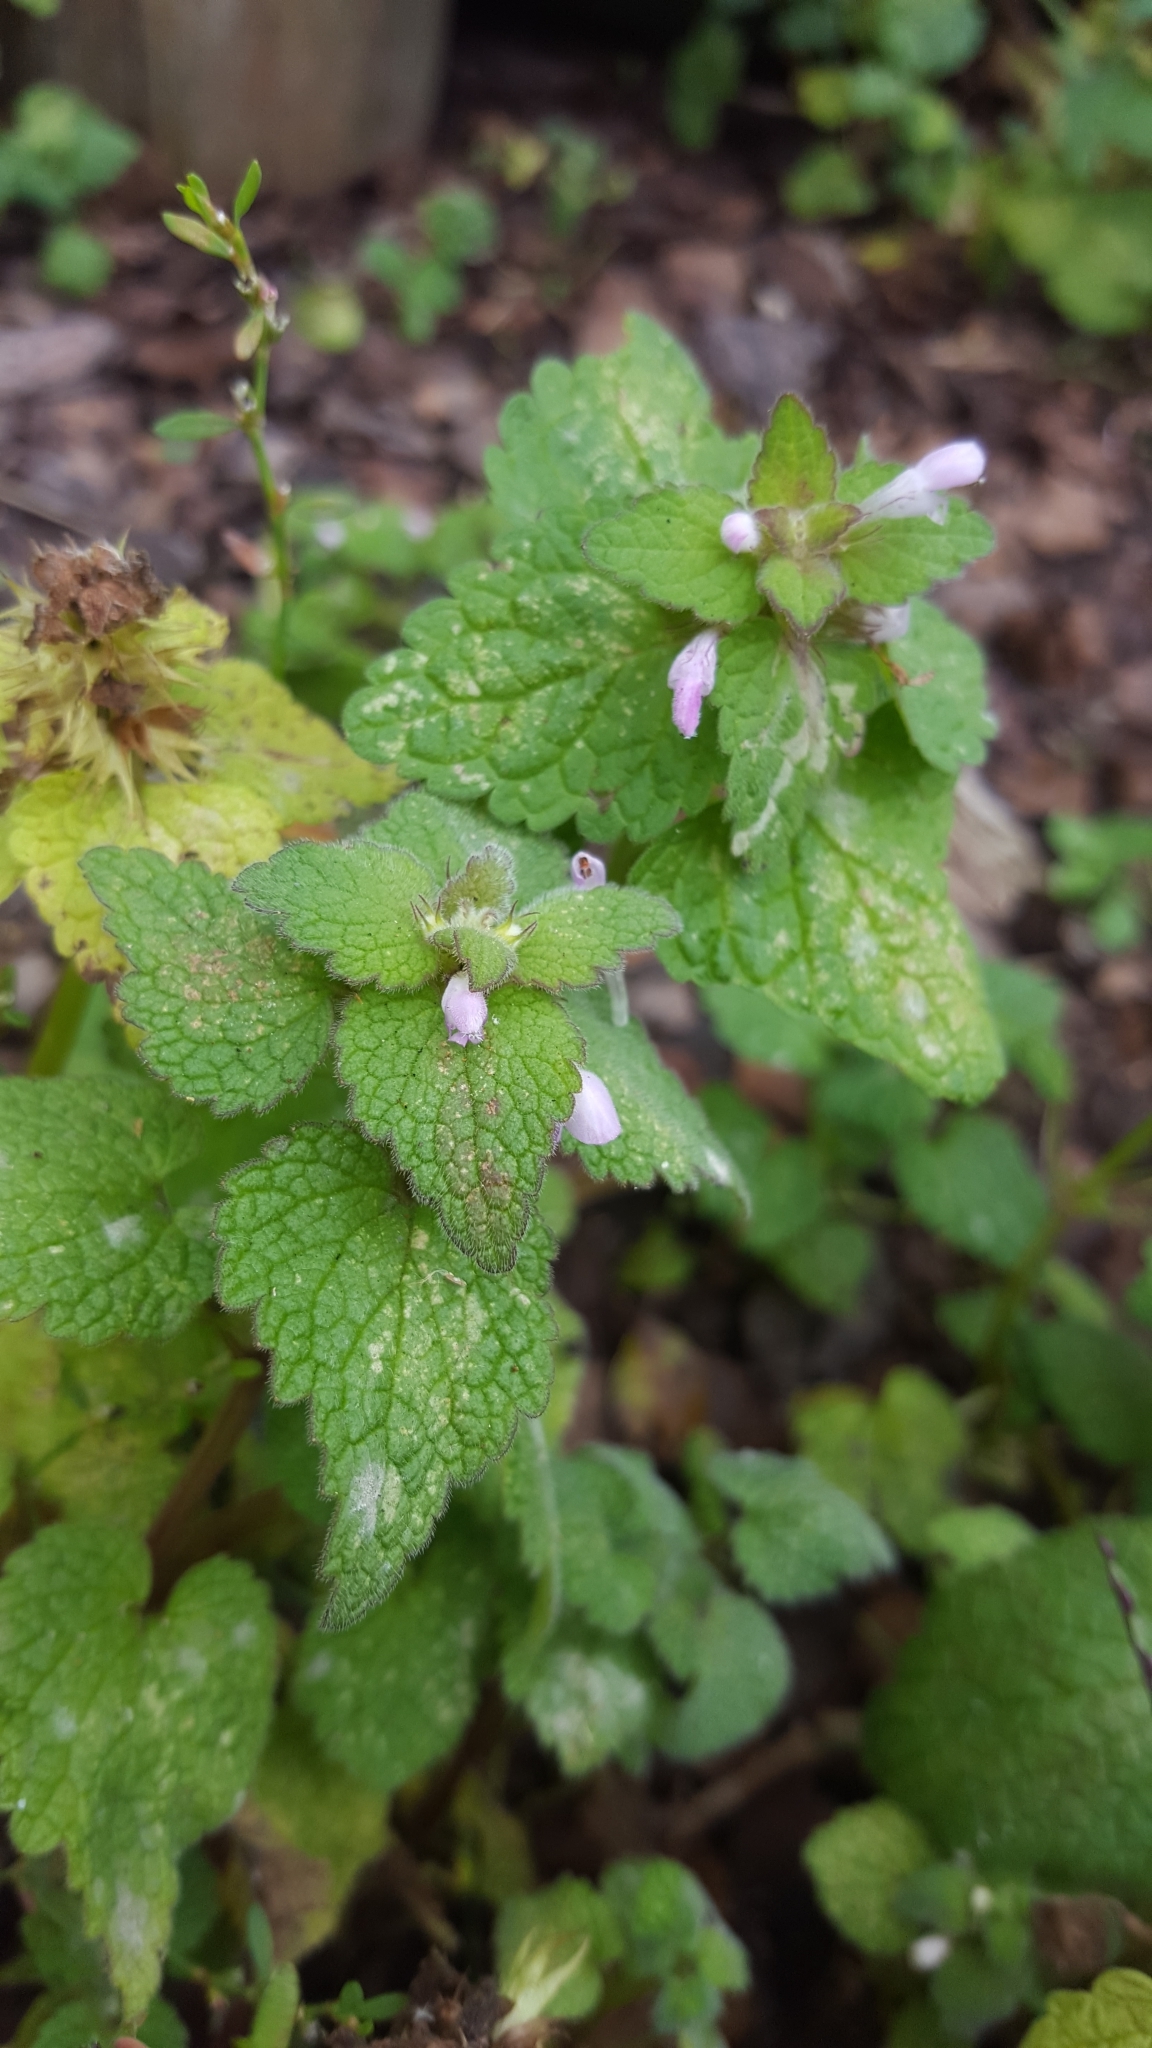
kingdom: Plantae
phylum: Tracheophyta
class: Magnoliopsida
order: Lamiales
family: Lamiaceae
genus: Lamium
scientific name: Lamium purpureum
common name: Red dead-nettle
